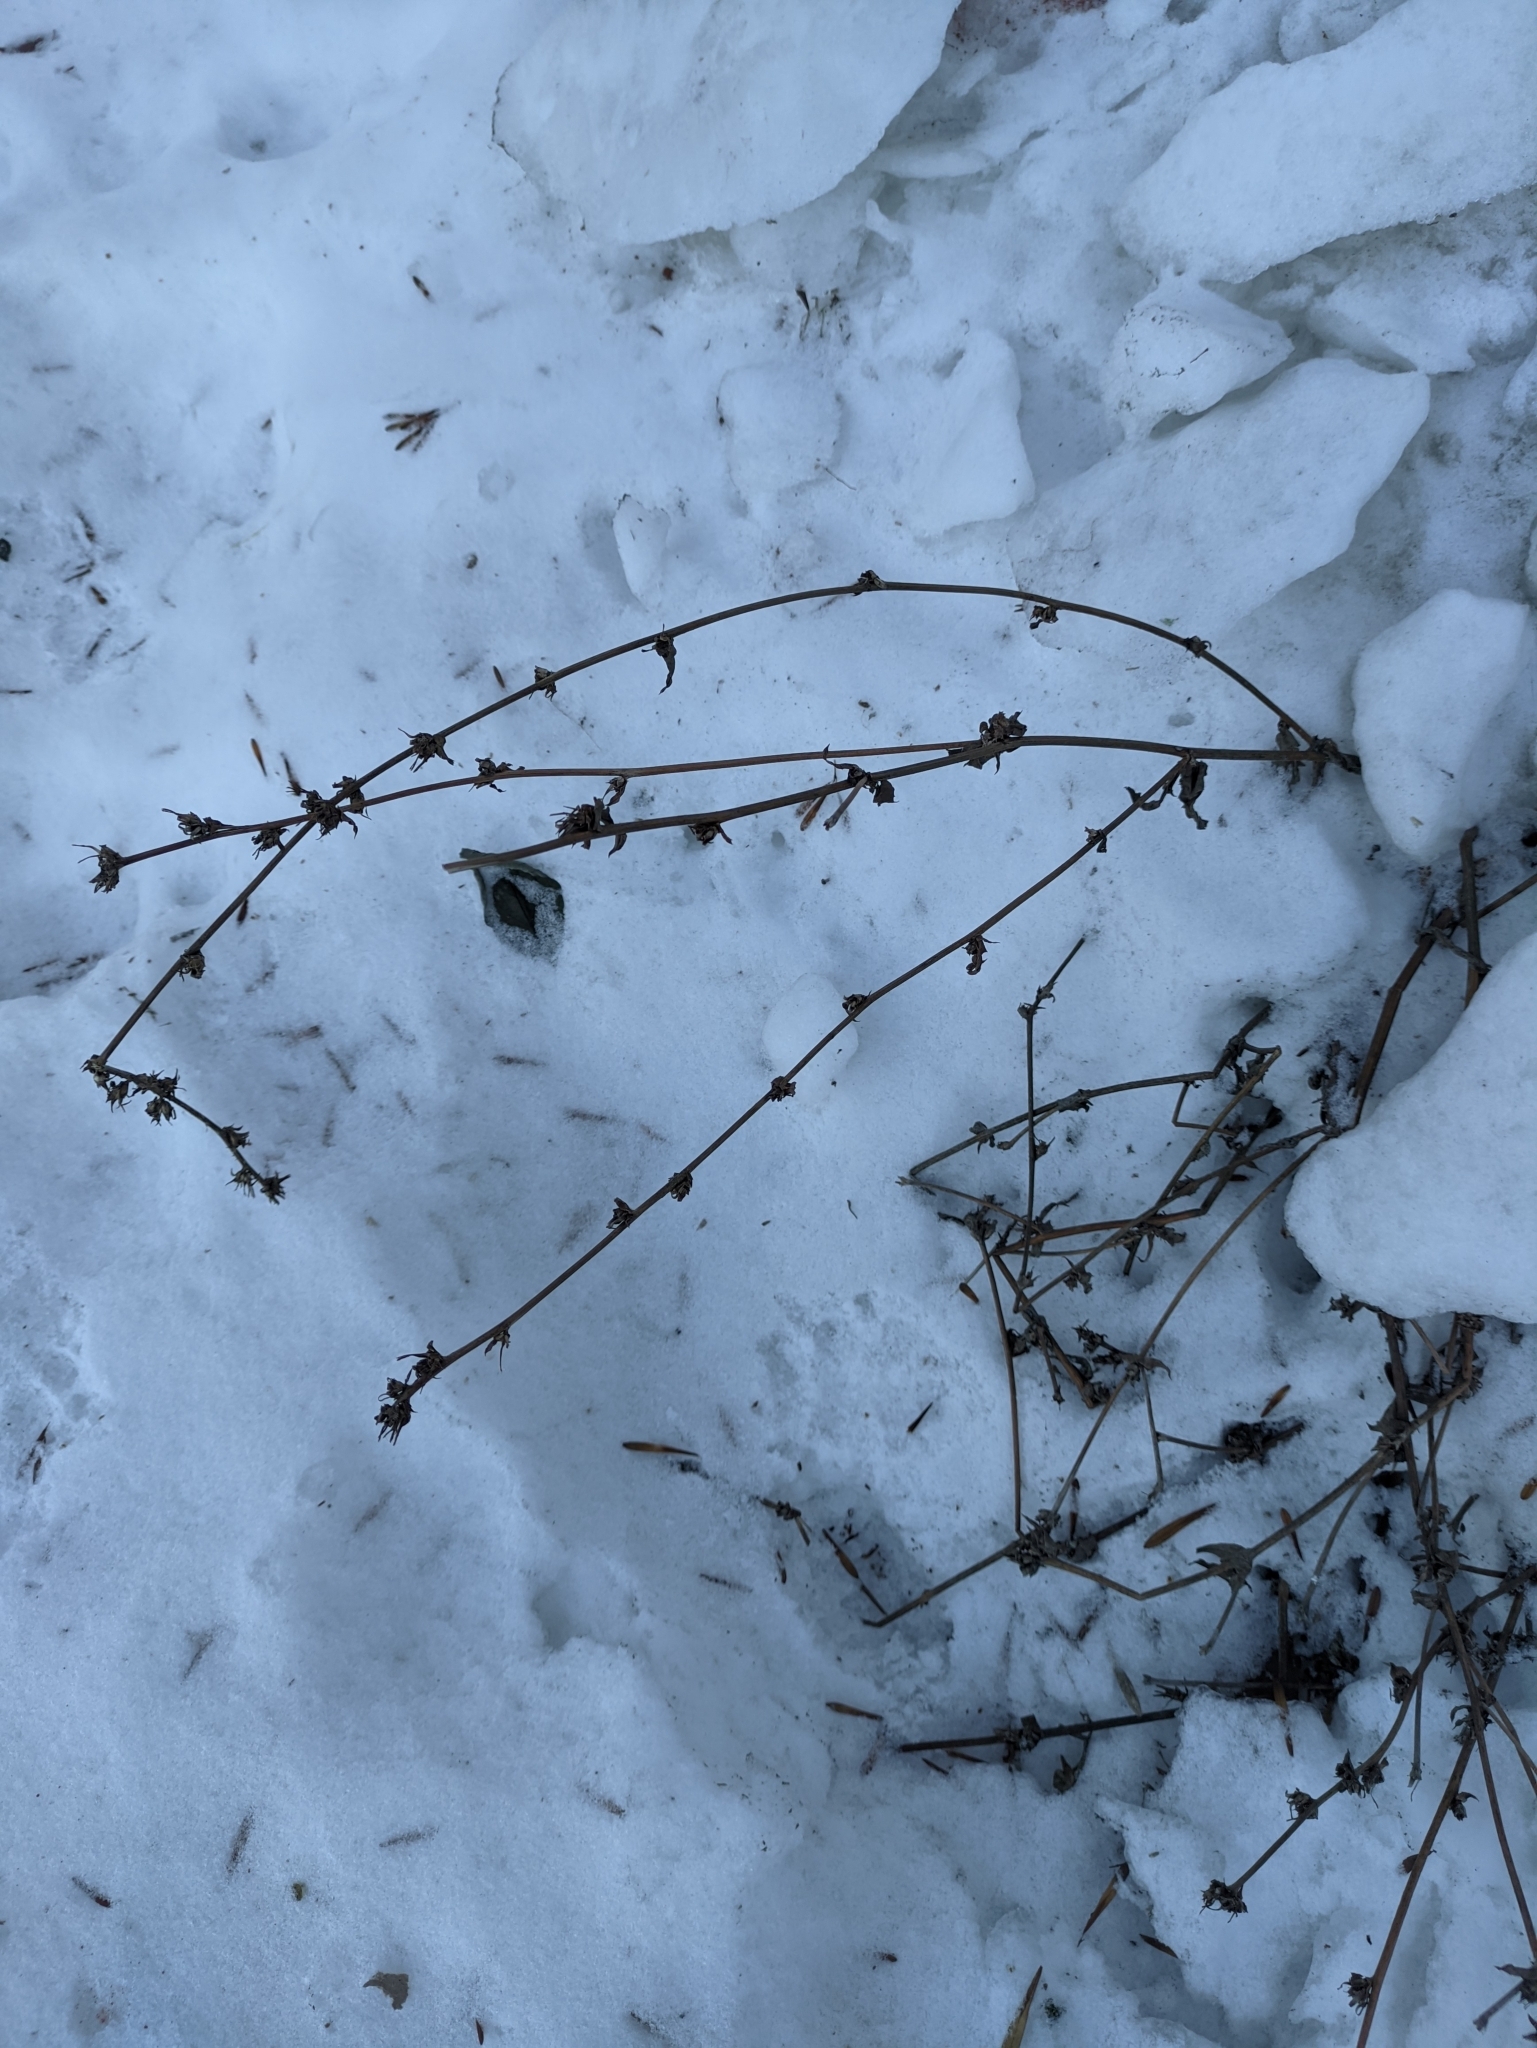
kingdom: Plantae
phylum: Tracheophyta
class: Magnoliopsida
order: Asterales
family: Asteraceae
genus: Cichorium
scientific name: Cichorium intybus
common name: Chicory
